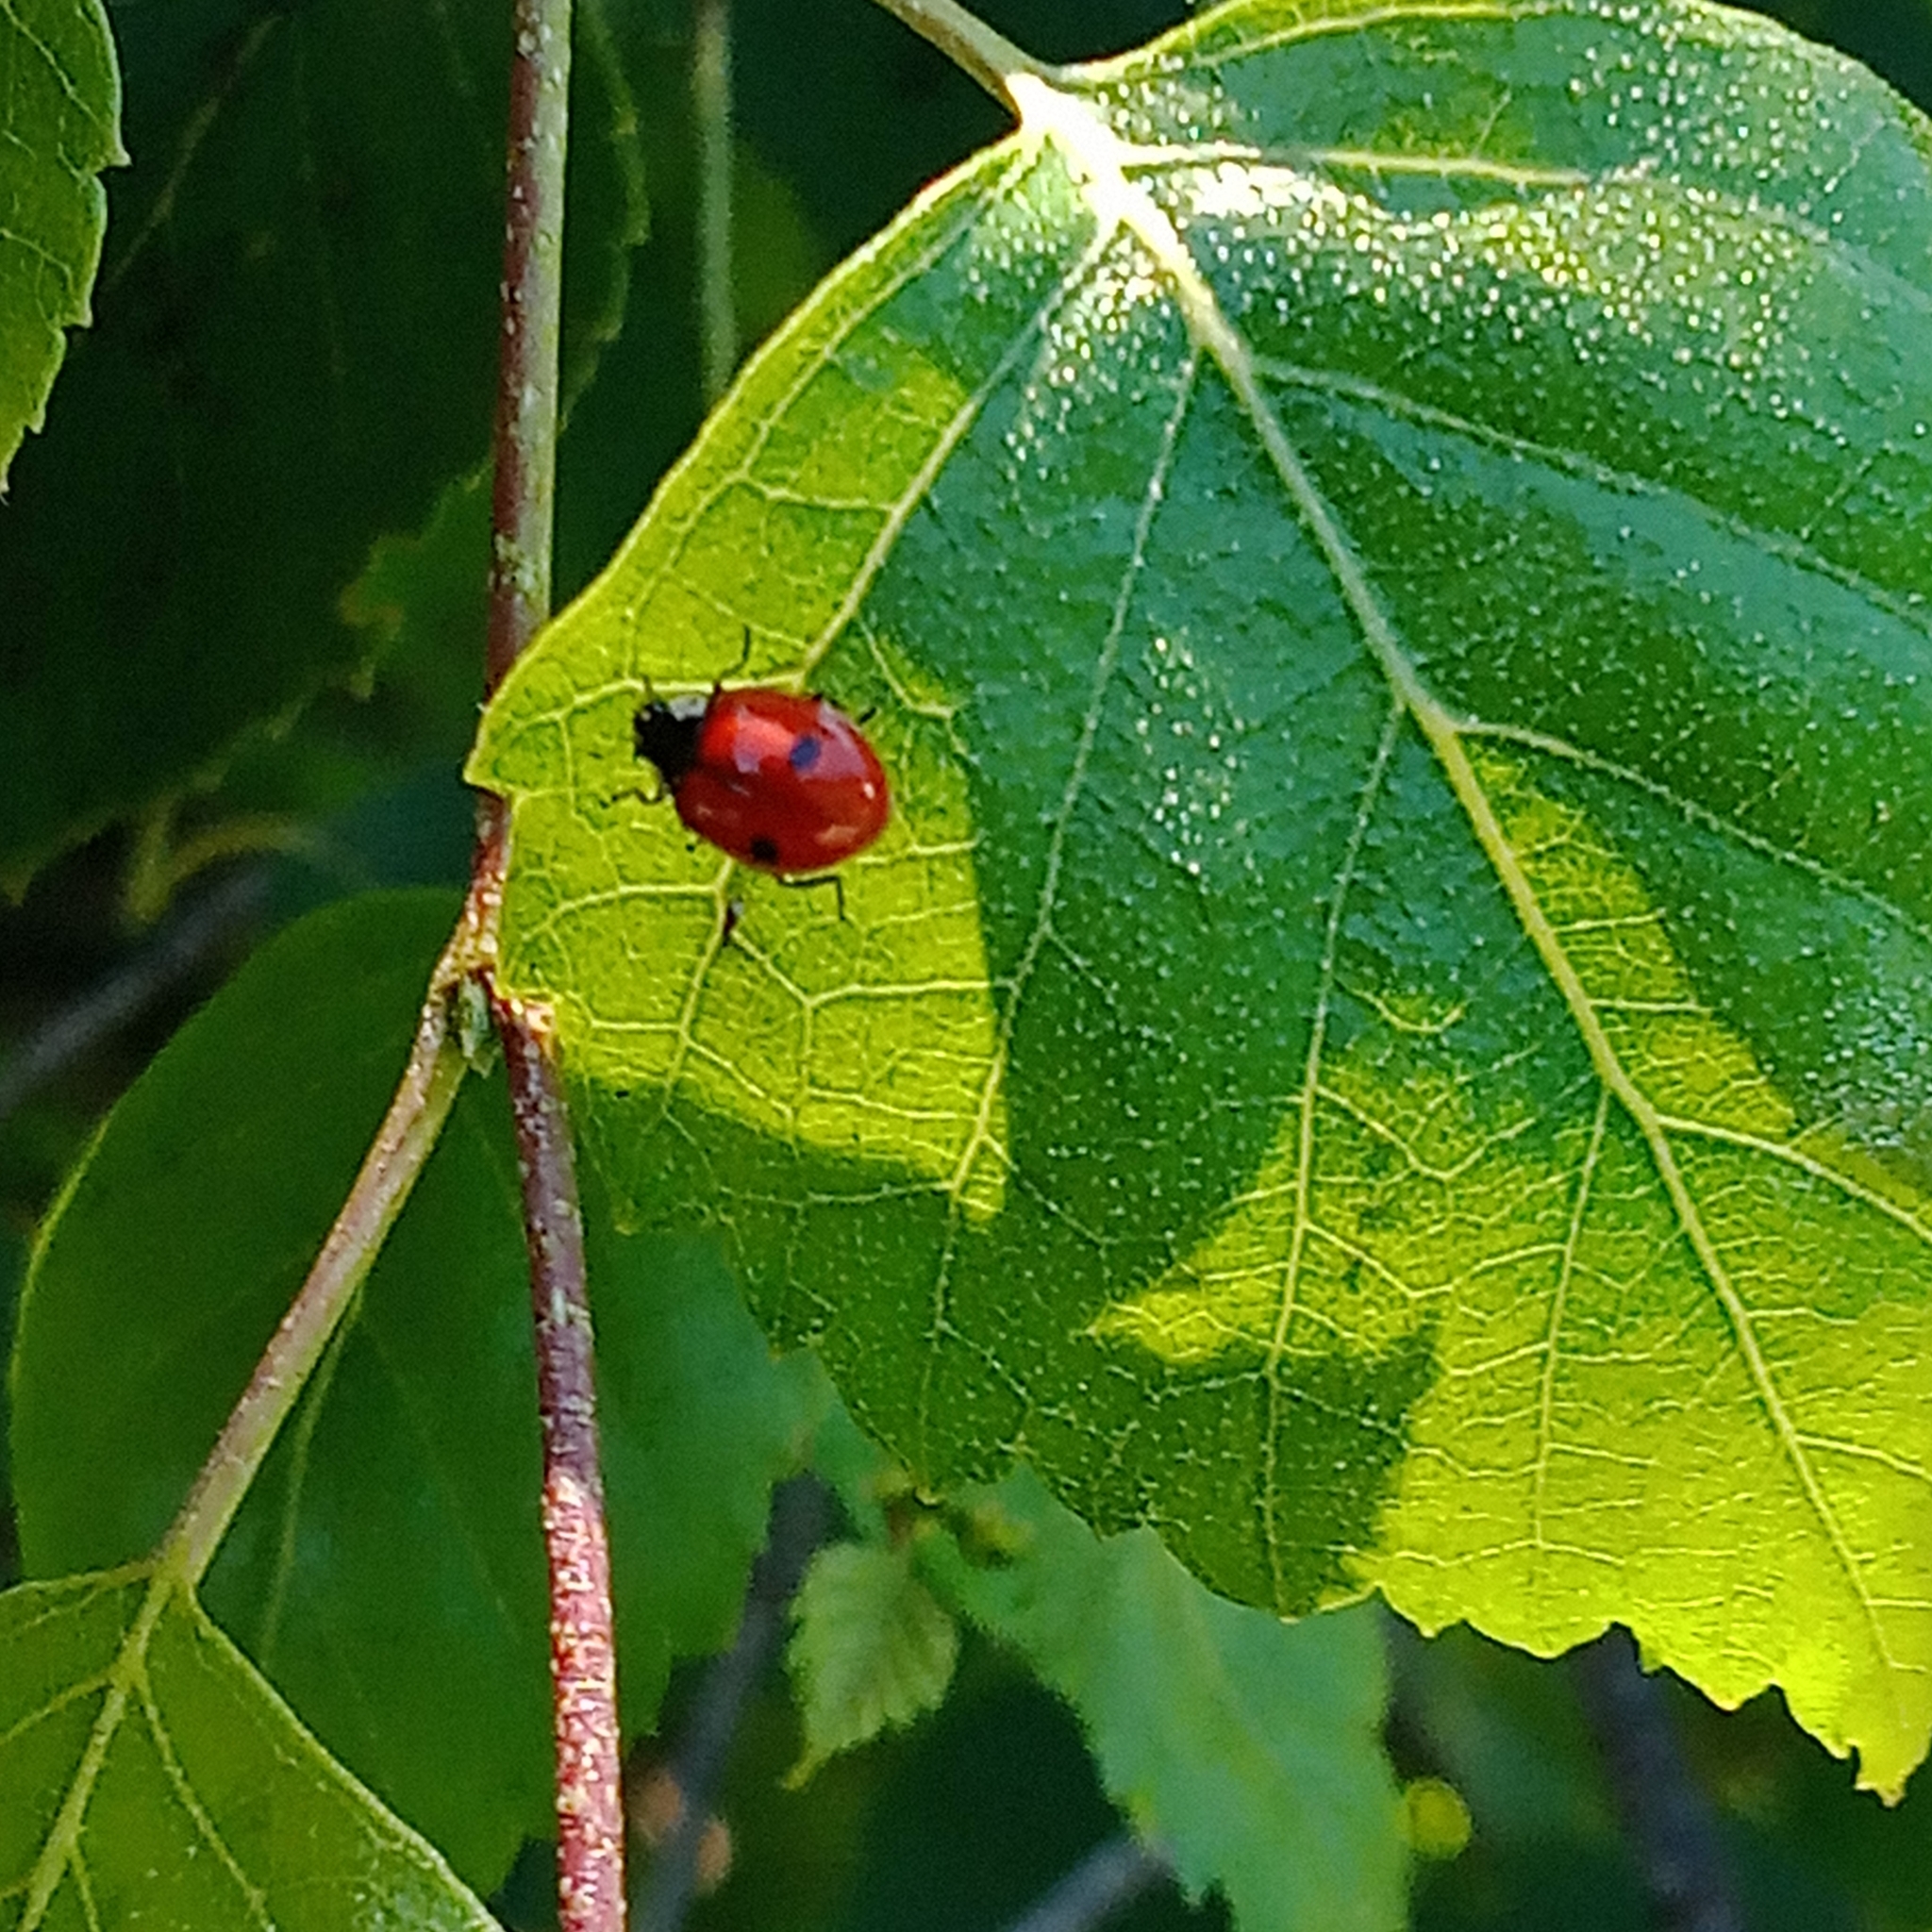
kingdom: Animalia
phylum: Arthropoda
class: Insecta
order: Coleoptera
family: Coccinellidae
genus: Adalia
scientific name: Adalia bipunctata
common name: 2-spot ladybird
